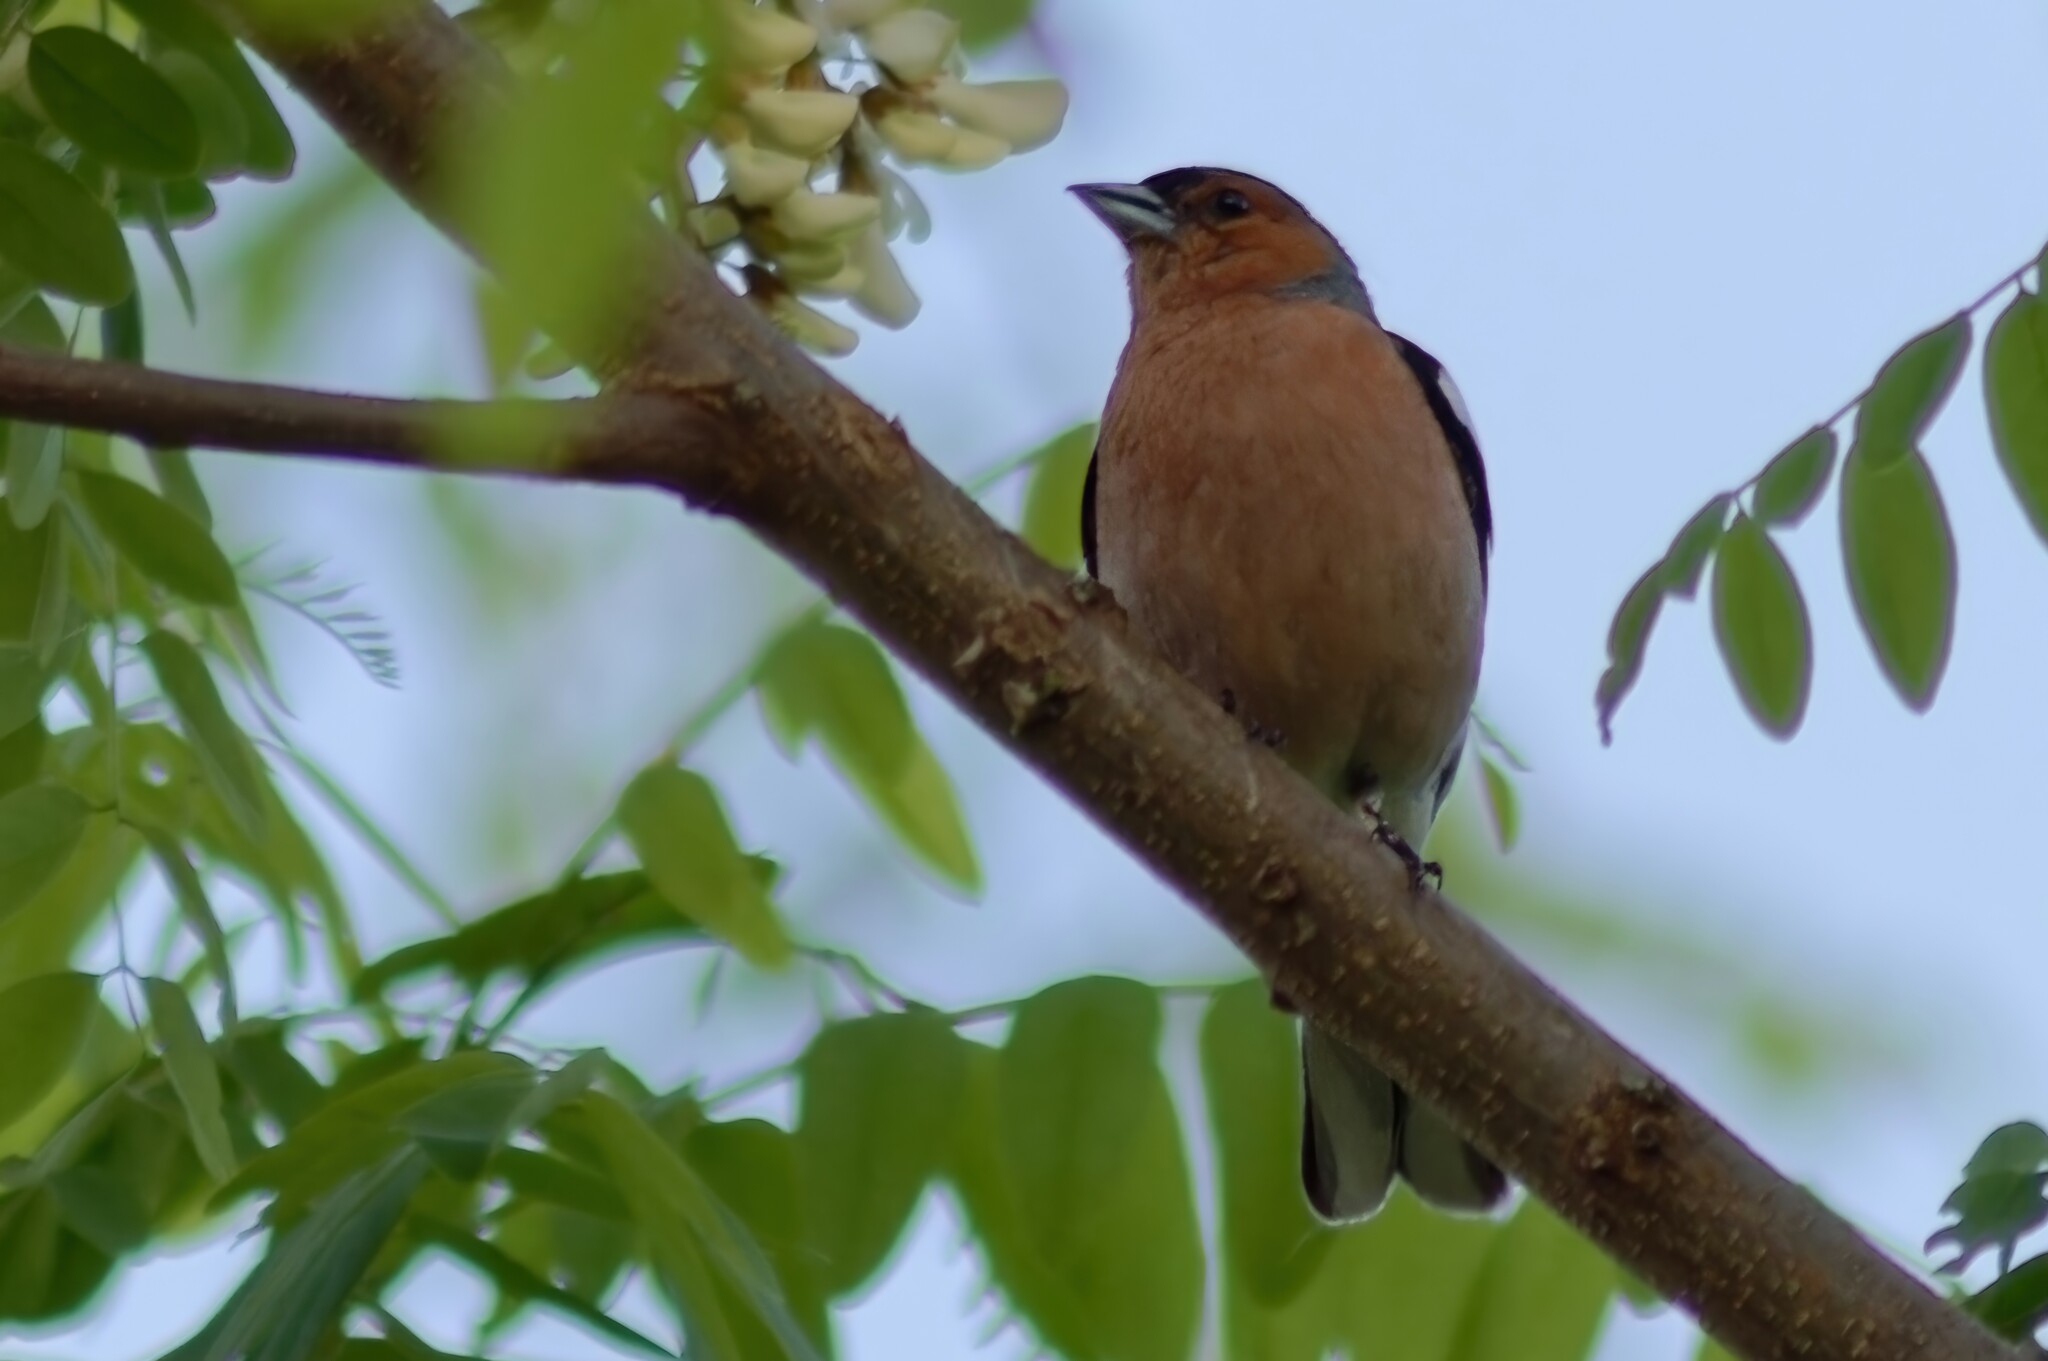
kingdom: Animalia
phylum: Chordata
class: Aves
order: Passeriformes
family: Fringillidae
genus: Fringilla
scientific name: Fringilla coelebs
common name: Common chaffinch
